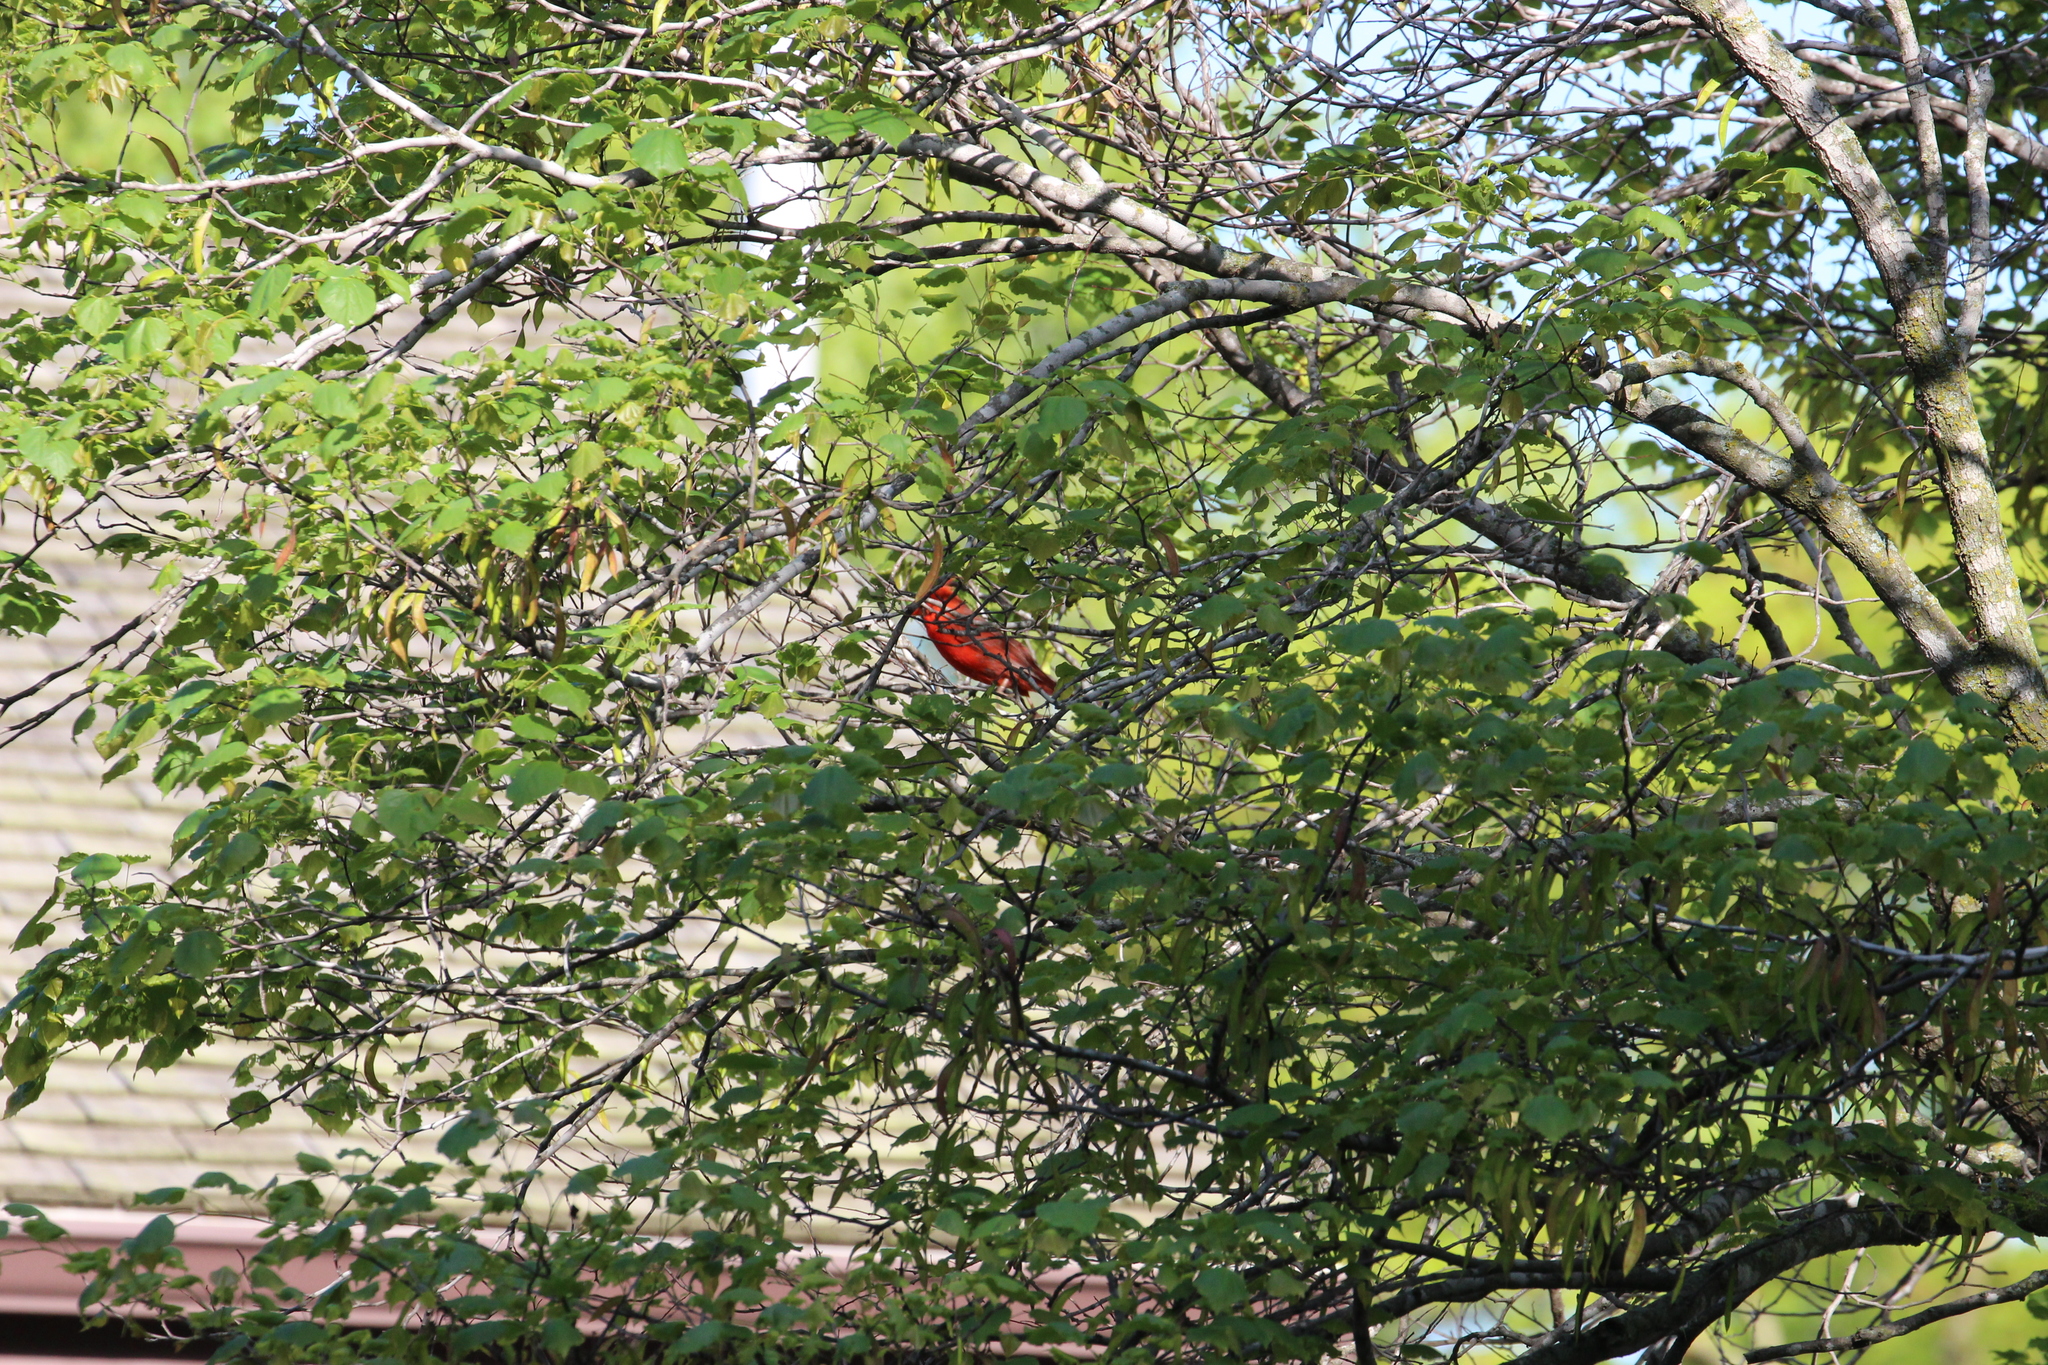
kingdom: Animalia
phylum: Chordata
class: Aves
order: Passeriformes
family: Cardinalidae
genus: Cardinalis
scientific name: Cardinalis cardinalis
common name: Northern cardinal
